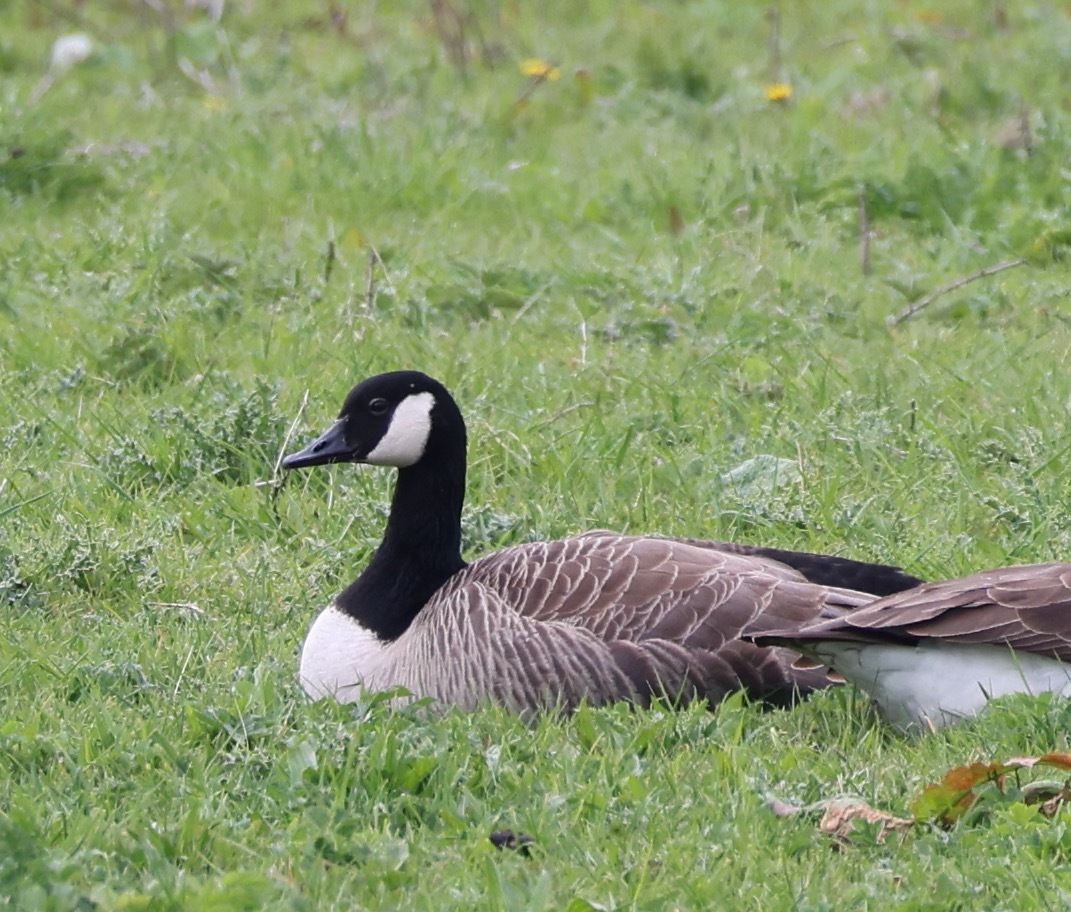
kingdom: Animalia
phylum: Chordata
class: Aves
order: Anseriformes
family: Anatidae
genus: Branta
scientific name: Branta canadensis
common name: Canada goose
